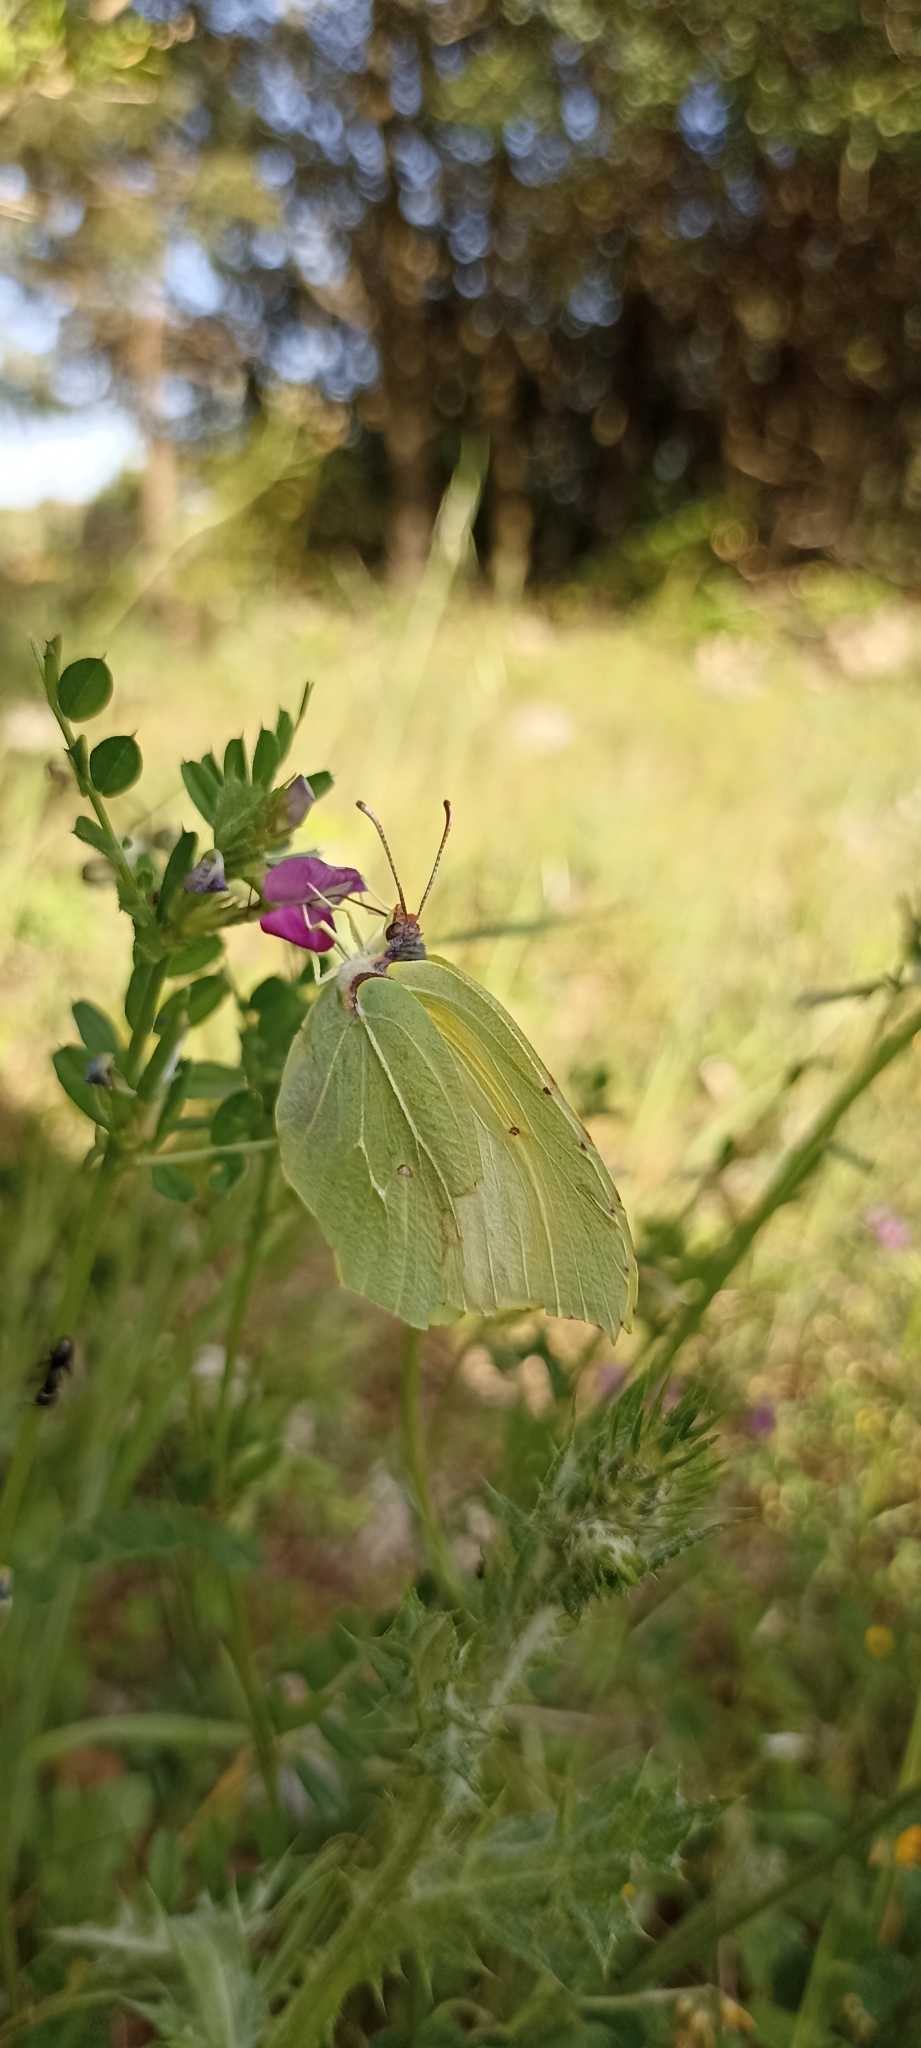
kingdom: Animalia
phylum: Arthropoda
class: Insecta
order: Lepidoptera
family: Pieridae
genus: Gonepteryx
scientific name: Gonepteryx cleopatra
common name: Cleopatra
